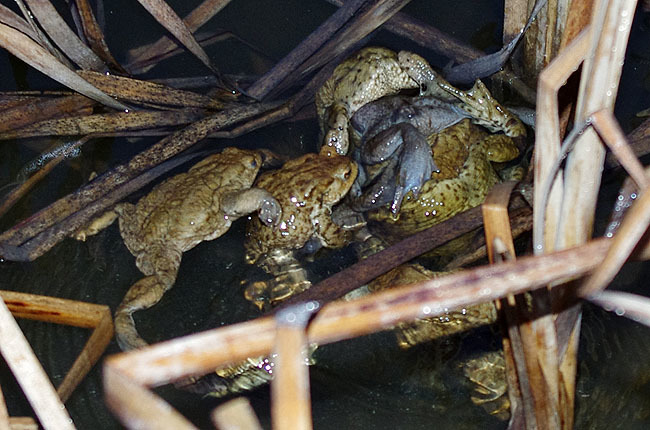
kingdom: Animalia
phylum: Chordata
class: Amphibia
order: Anura
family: Bufonidae
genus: Bufo
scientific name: Bufo bufo
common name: Common toad
